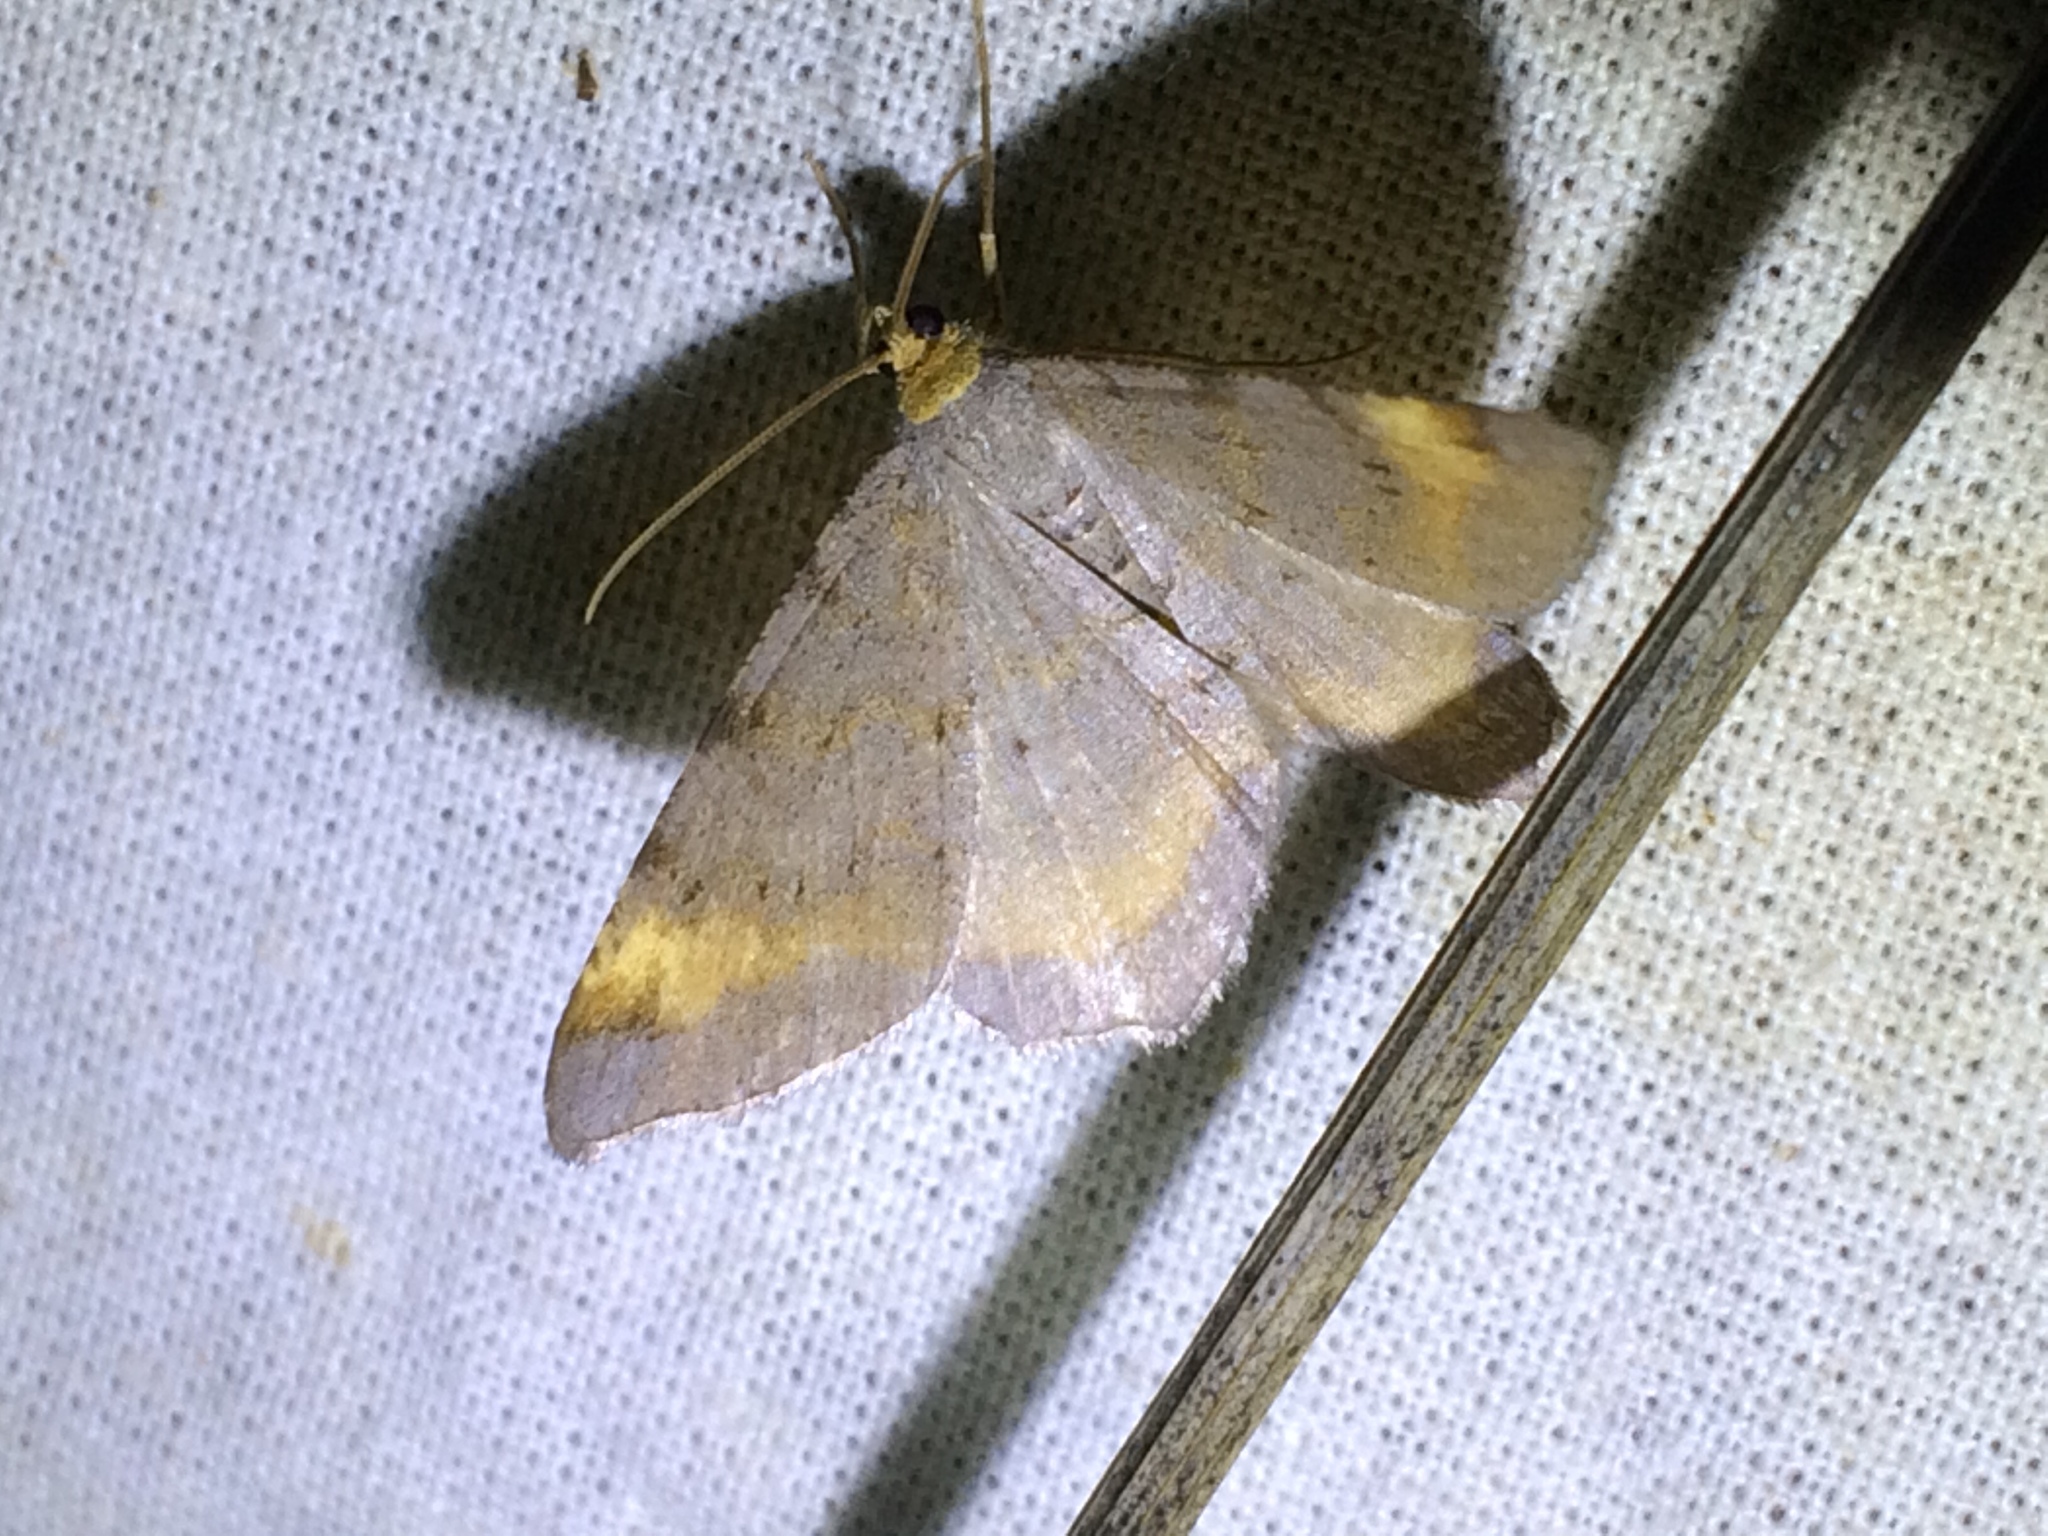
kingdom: Animalia
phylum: Arthropoda
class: Insecta
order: Lepidoptera
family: Geometridae
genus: Macaria
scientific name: Macaria liturata
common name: Tawny-barred angle
